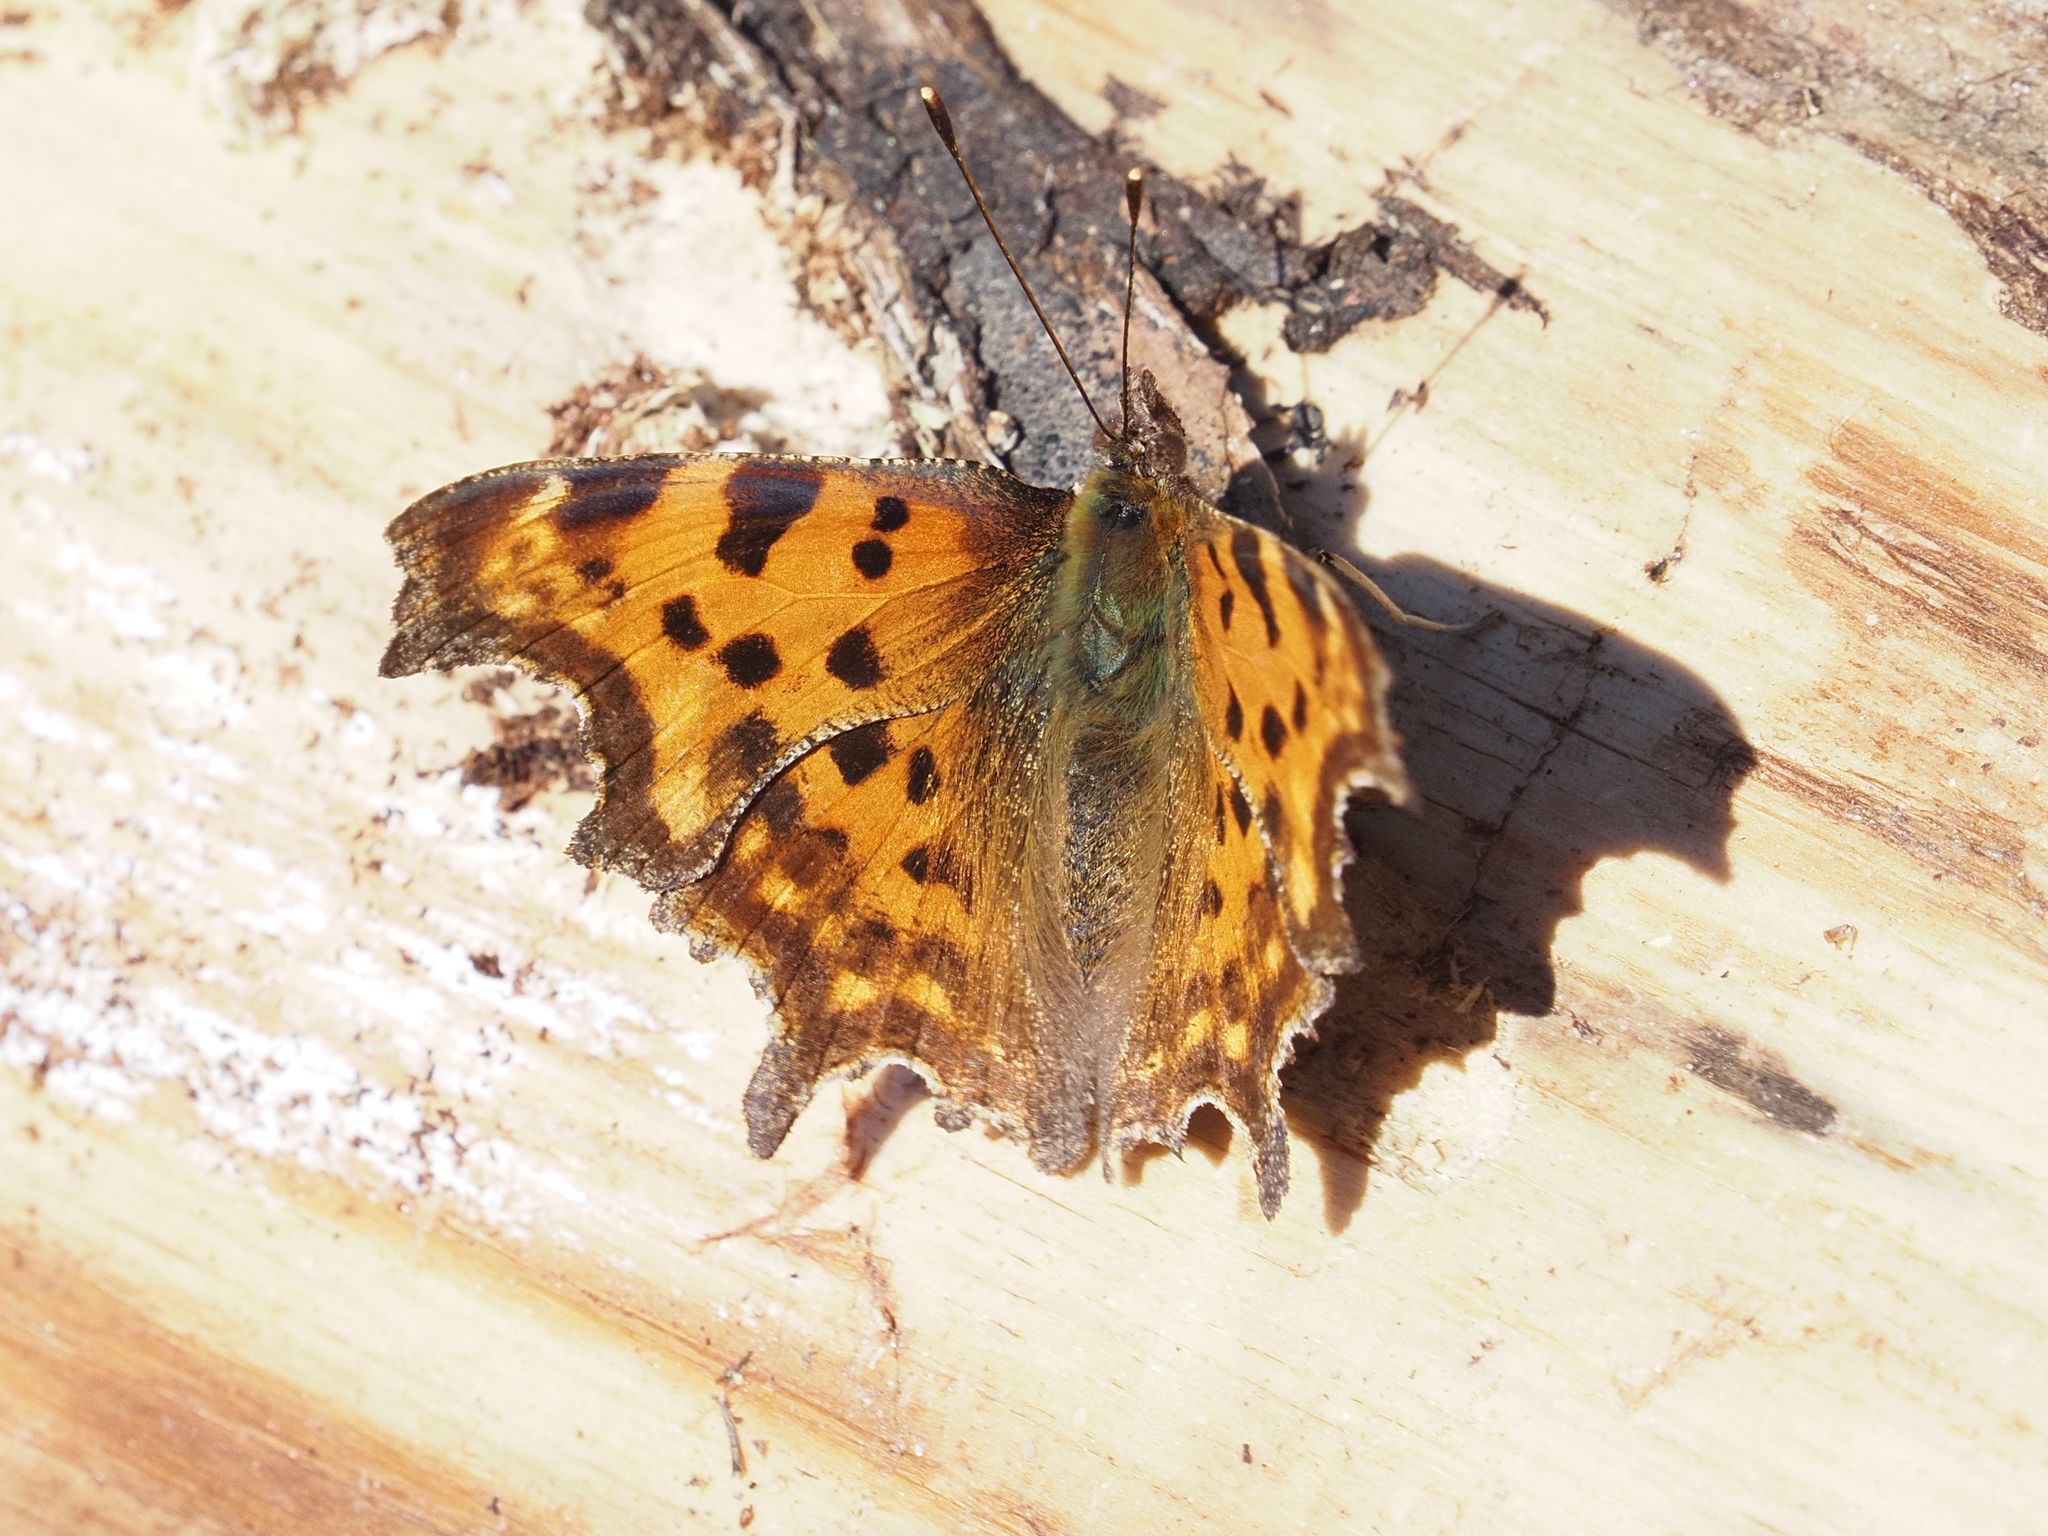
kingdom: Animalia
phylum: Arthropoda
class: Insecta
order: Lepidoptera
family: Nymphalidae
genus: Polygonia
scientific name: Polygonia c-album
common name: Comma
